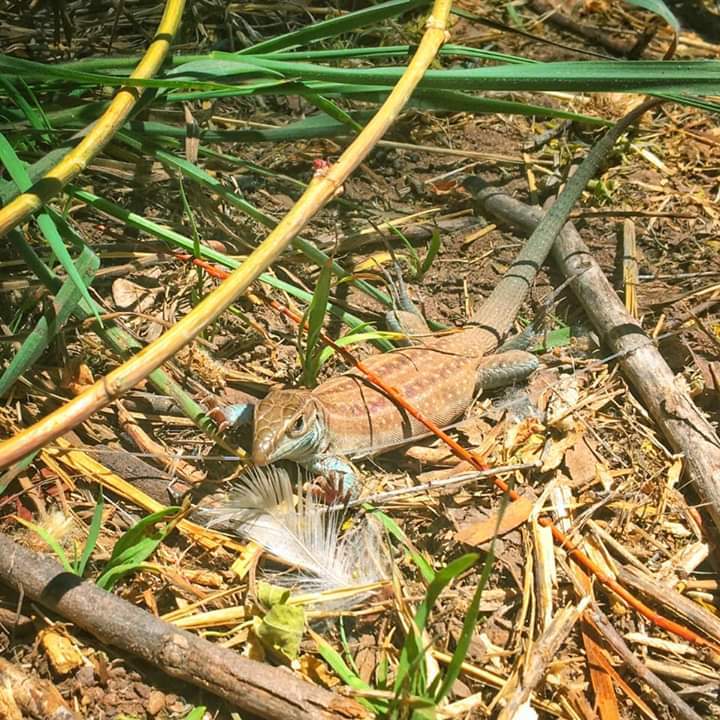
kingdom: Animalia
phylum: Chordata
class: Squamata
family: Teiidae
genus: Aspidoscelis
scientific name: Aspidoscelis exsanguis
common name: Chihuahuan spotted whiptail
